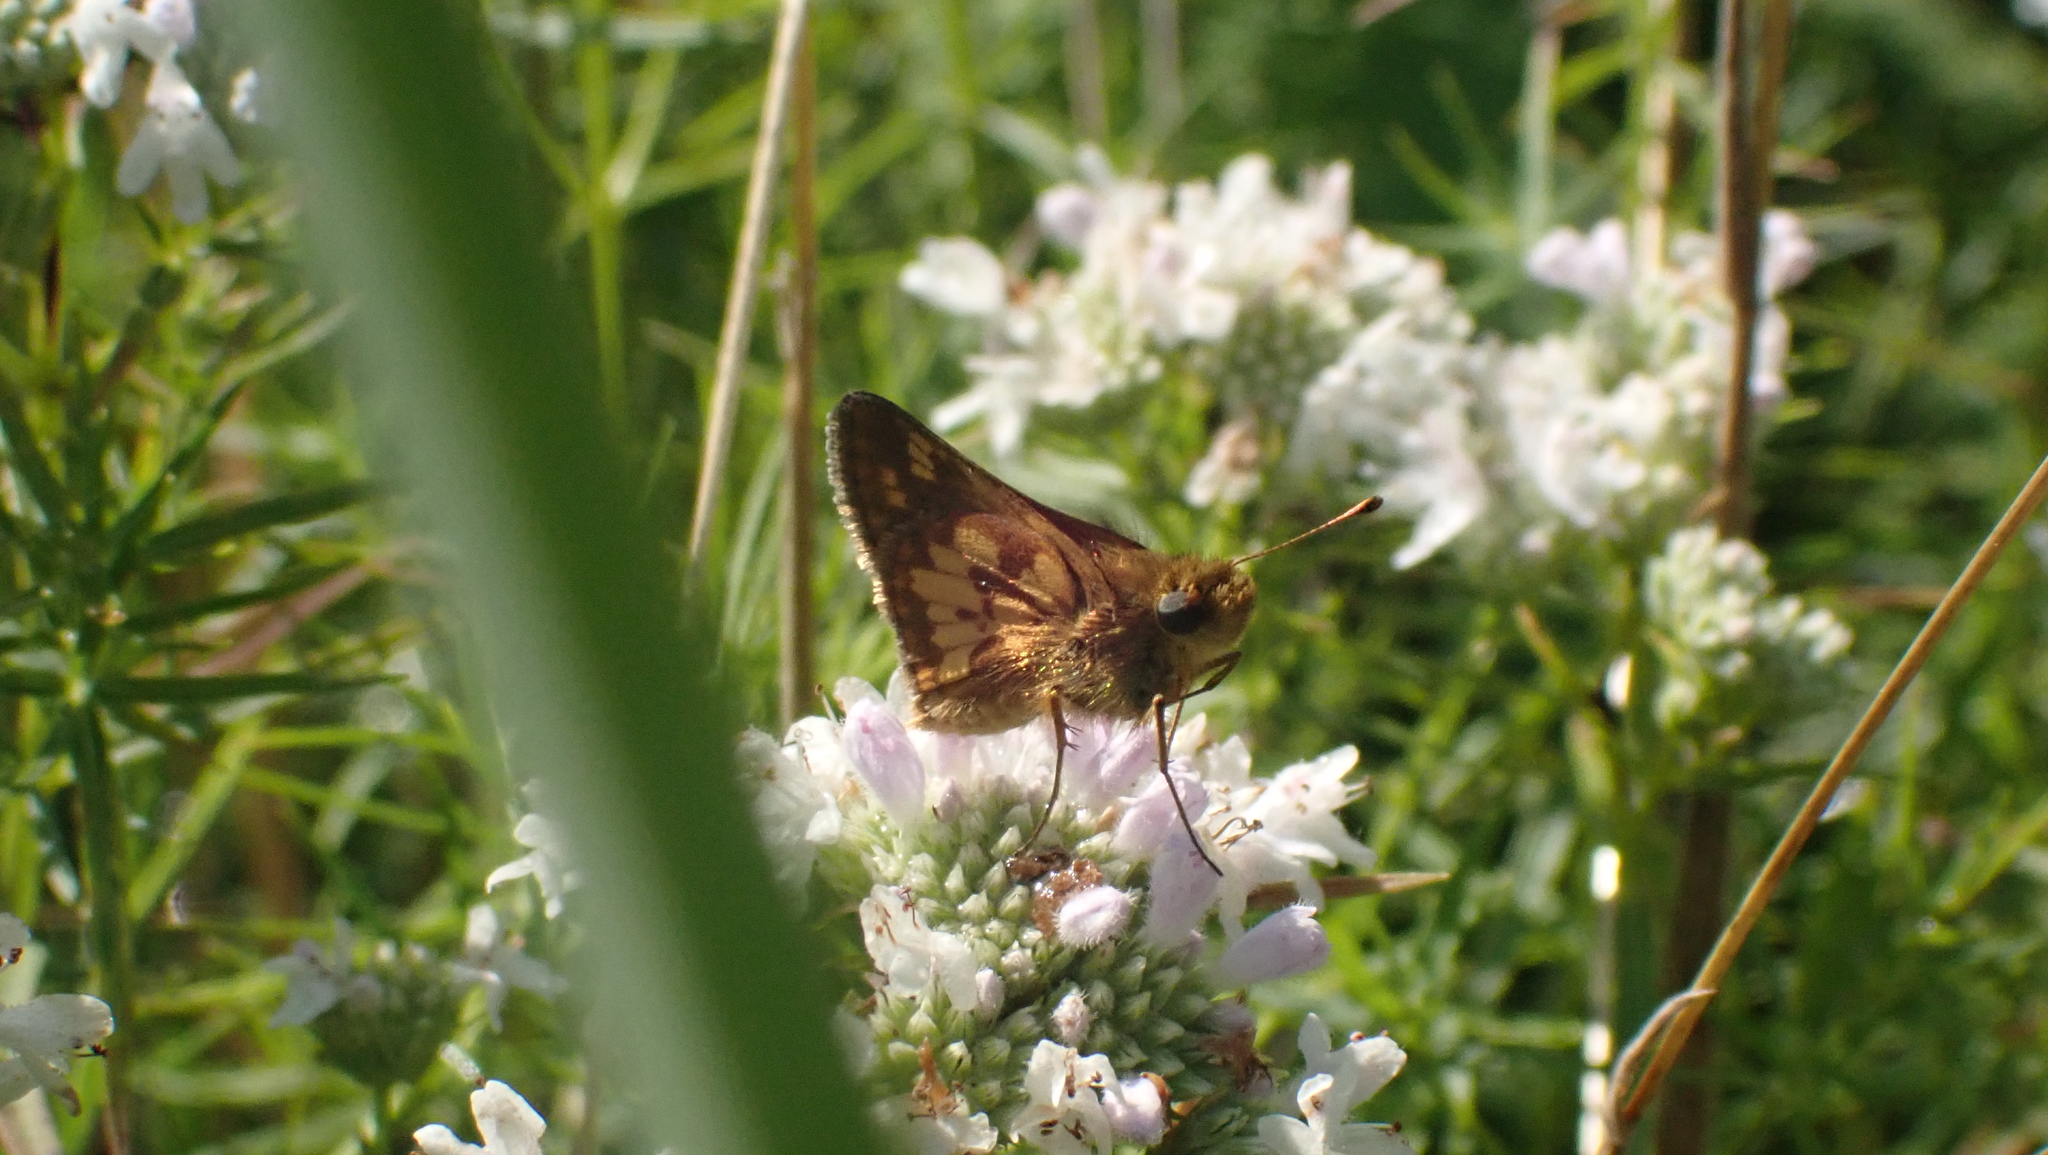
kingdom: Animalia
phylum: Arthropoda
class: Insecta
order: Lepidoptera
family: Hesperiidae
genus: Polites
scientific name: Polites coras
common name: Peck's skipper
